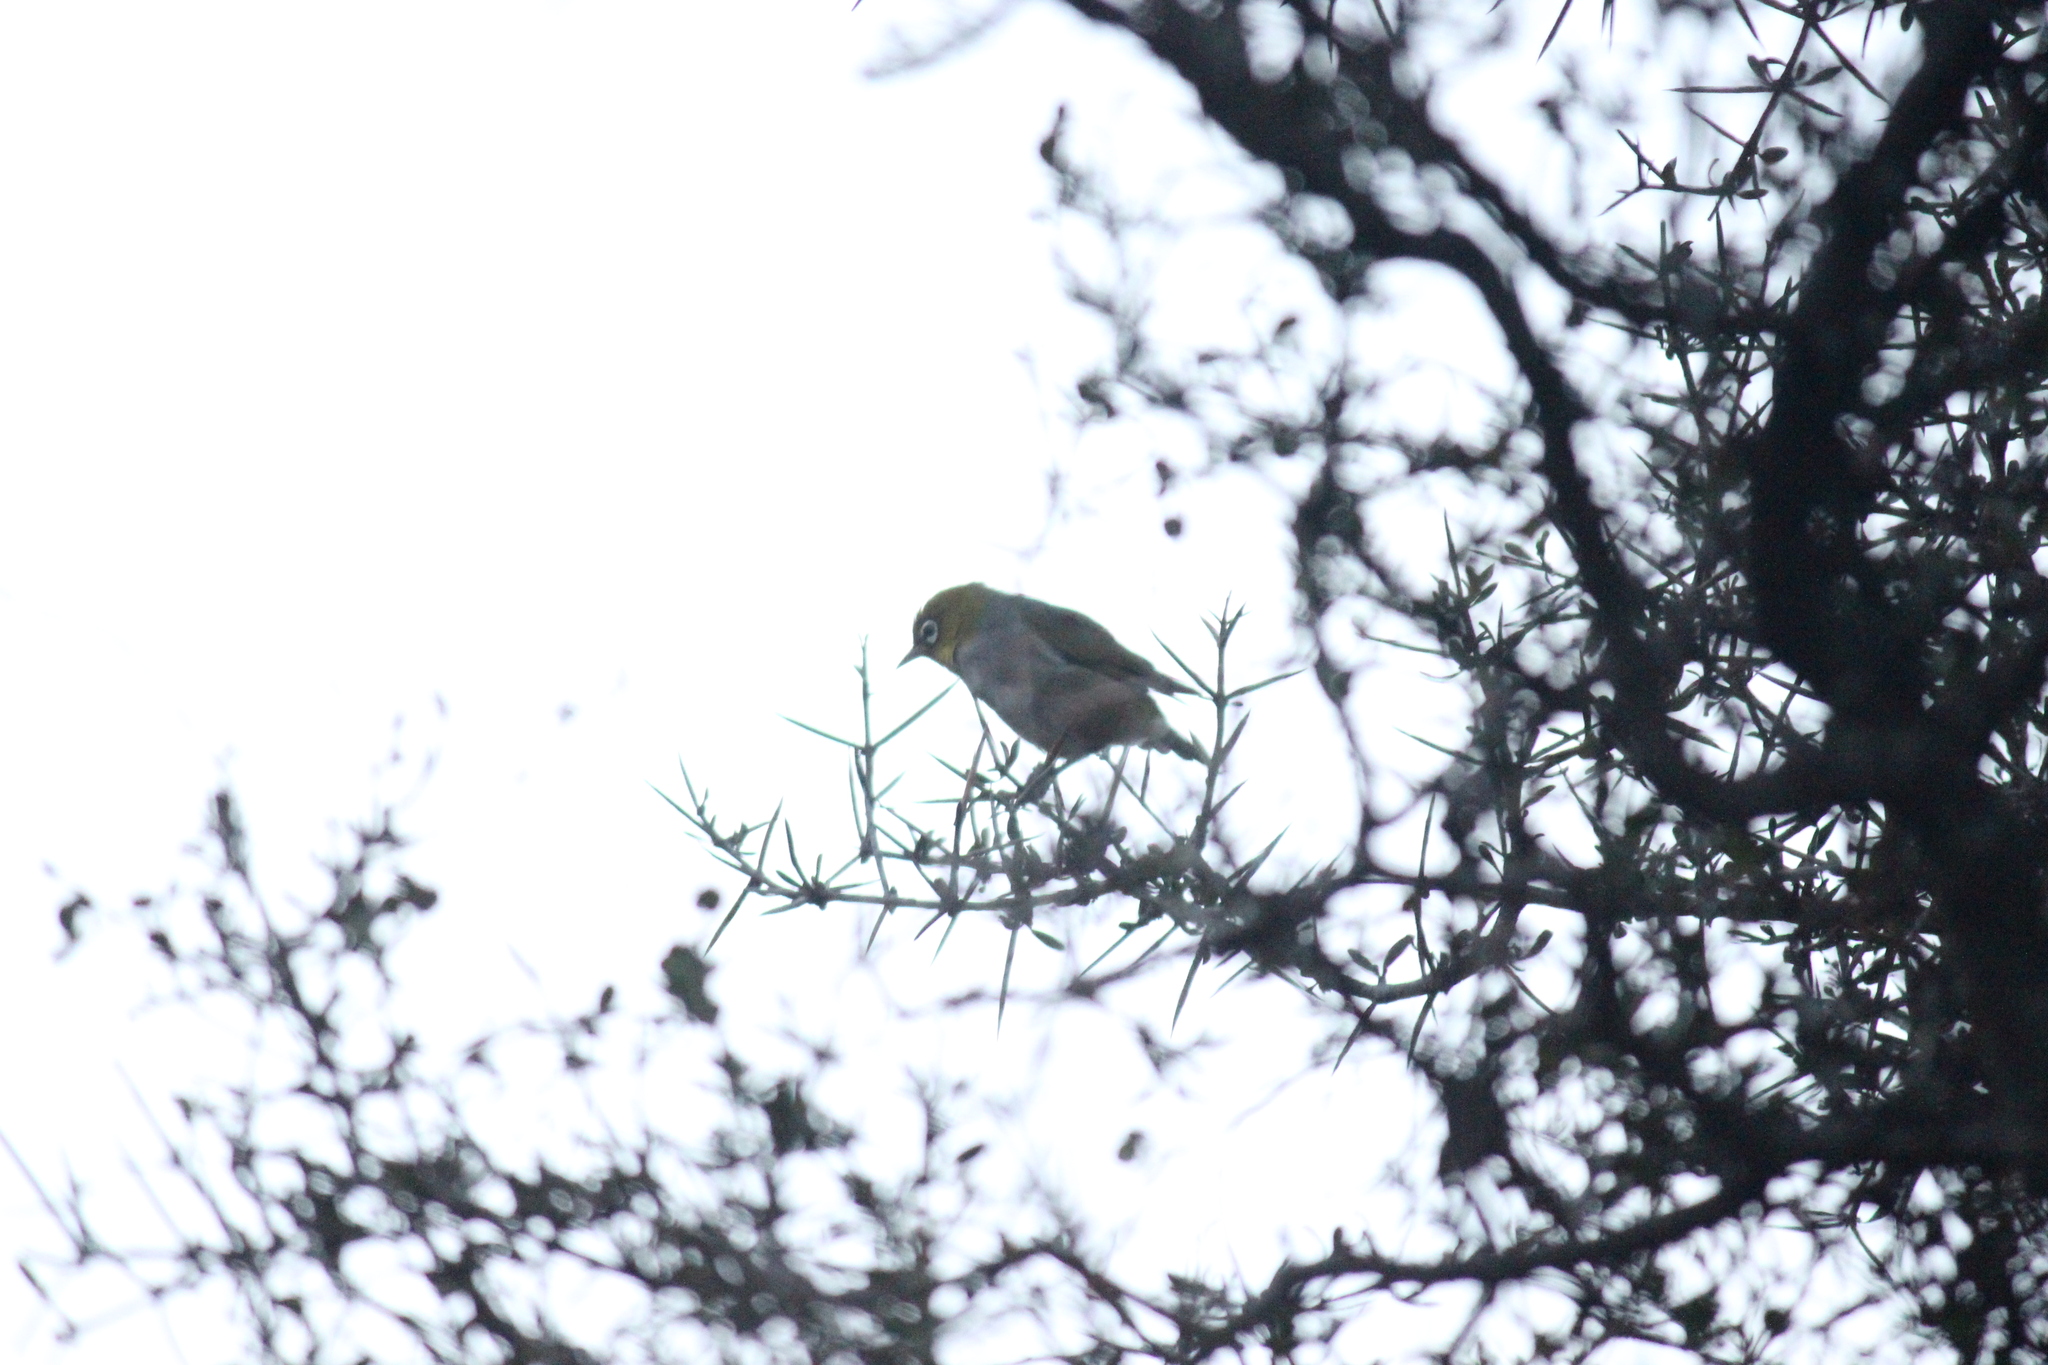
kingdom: Animalia
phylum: Chordata
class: Aves
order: Passeriformes
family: Zosteropidae
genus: Zosterops
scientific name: Zosterops lateralis
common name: Silvereye
